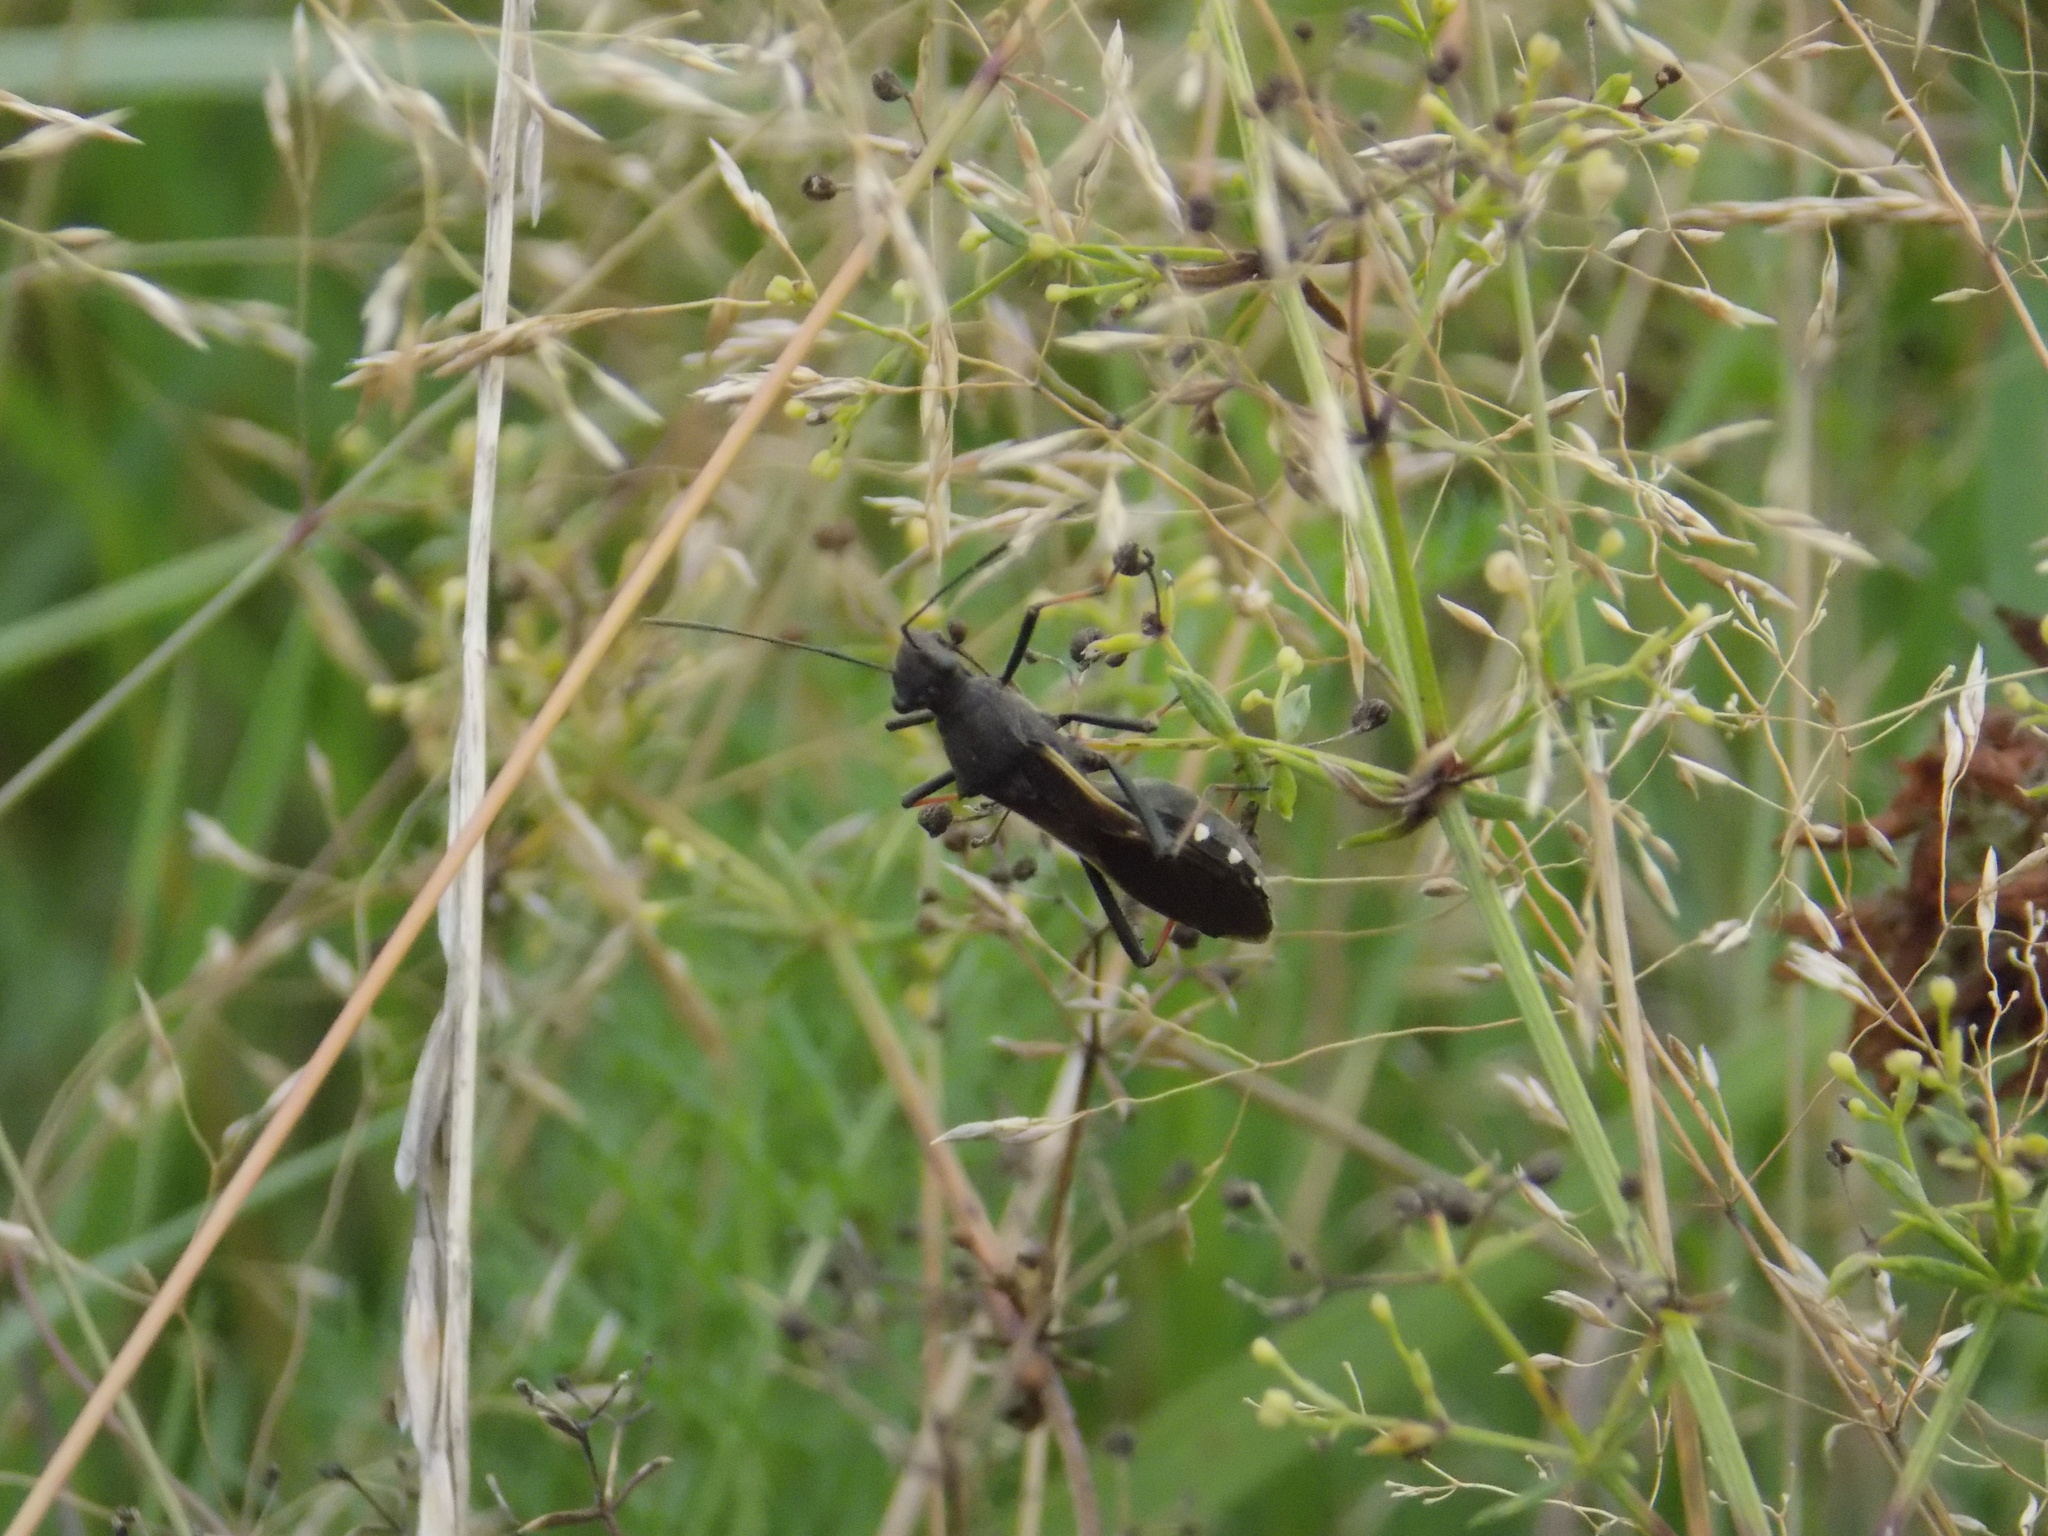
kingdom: Animalia
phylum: Arthropoda
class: Insecta
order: Hemiptera
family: Alydidae
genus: Megalotomus
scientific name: Megalotomus junceus
